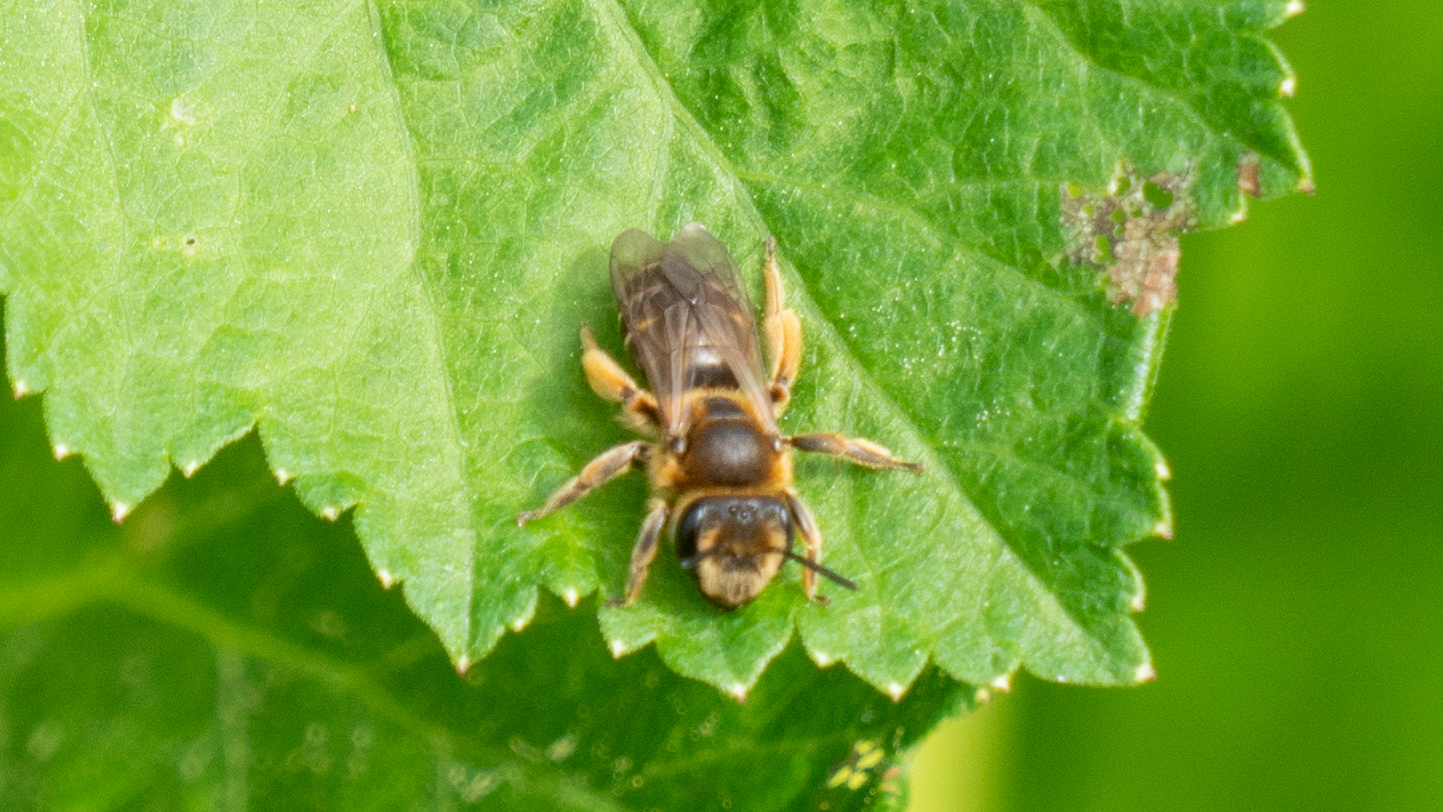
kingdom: Animalia
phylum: Arthropoda
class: Insecta
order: Hymenoptera
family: Andrenidae
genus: Andrena
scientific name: Andrena wilkella
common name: Wilke's mining bee
